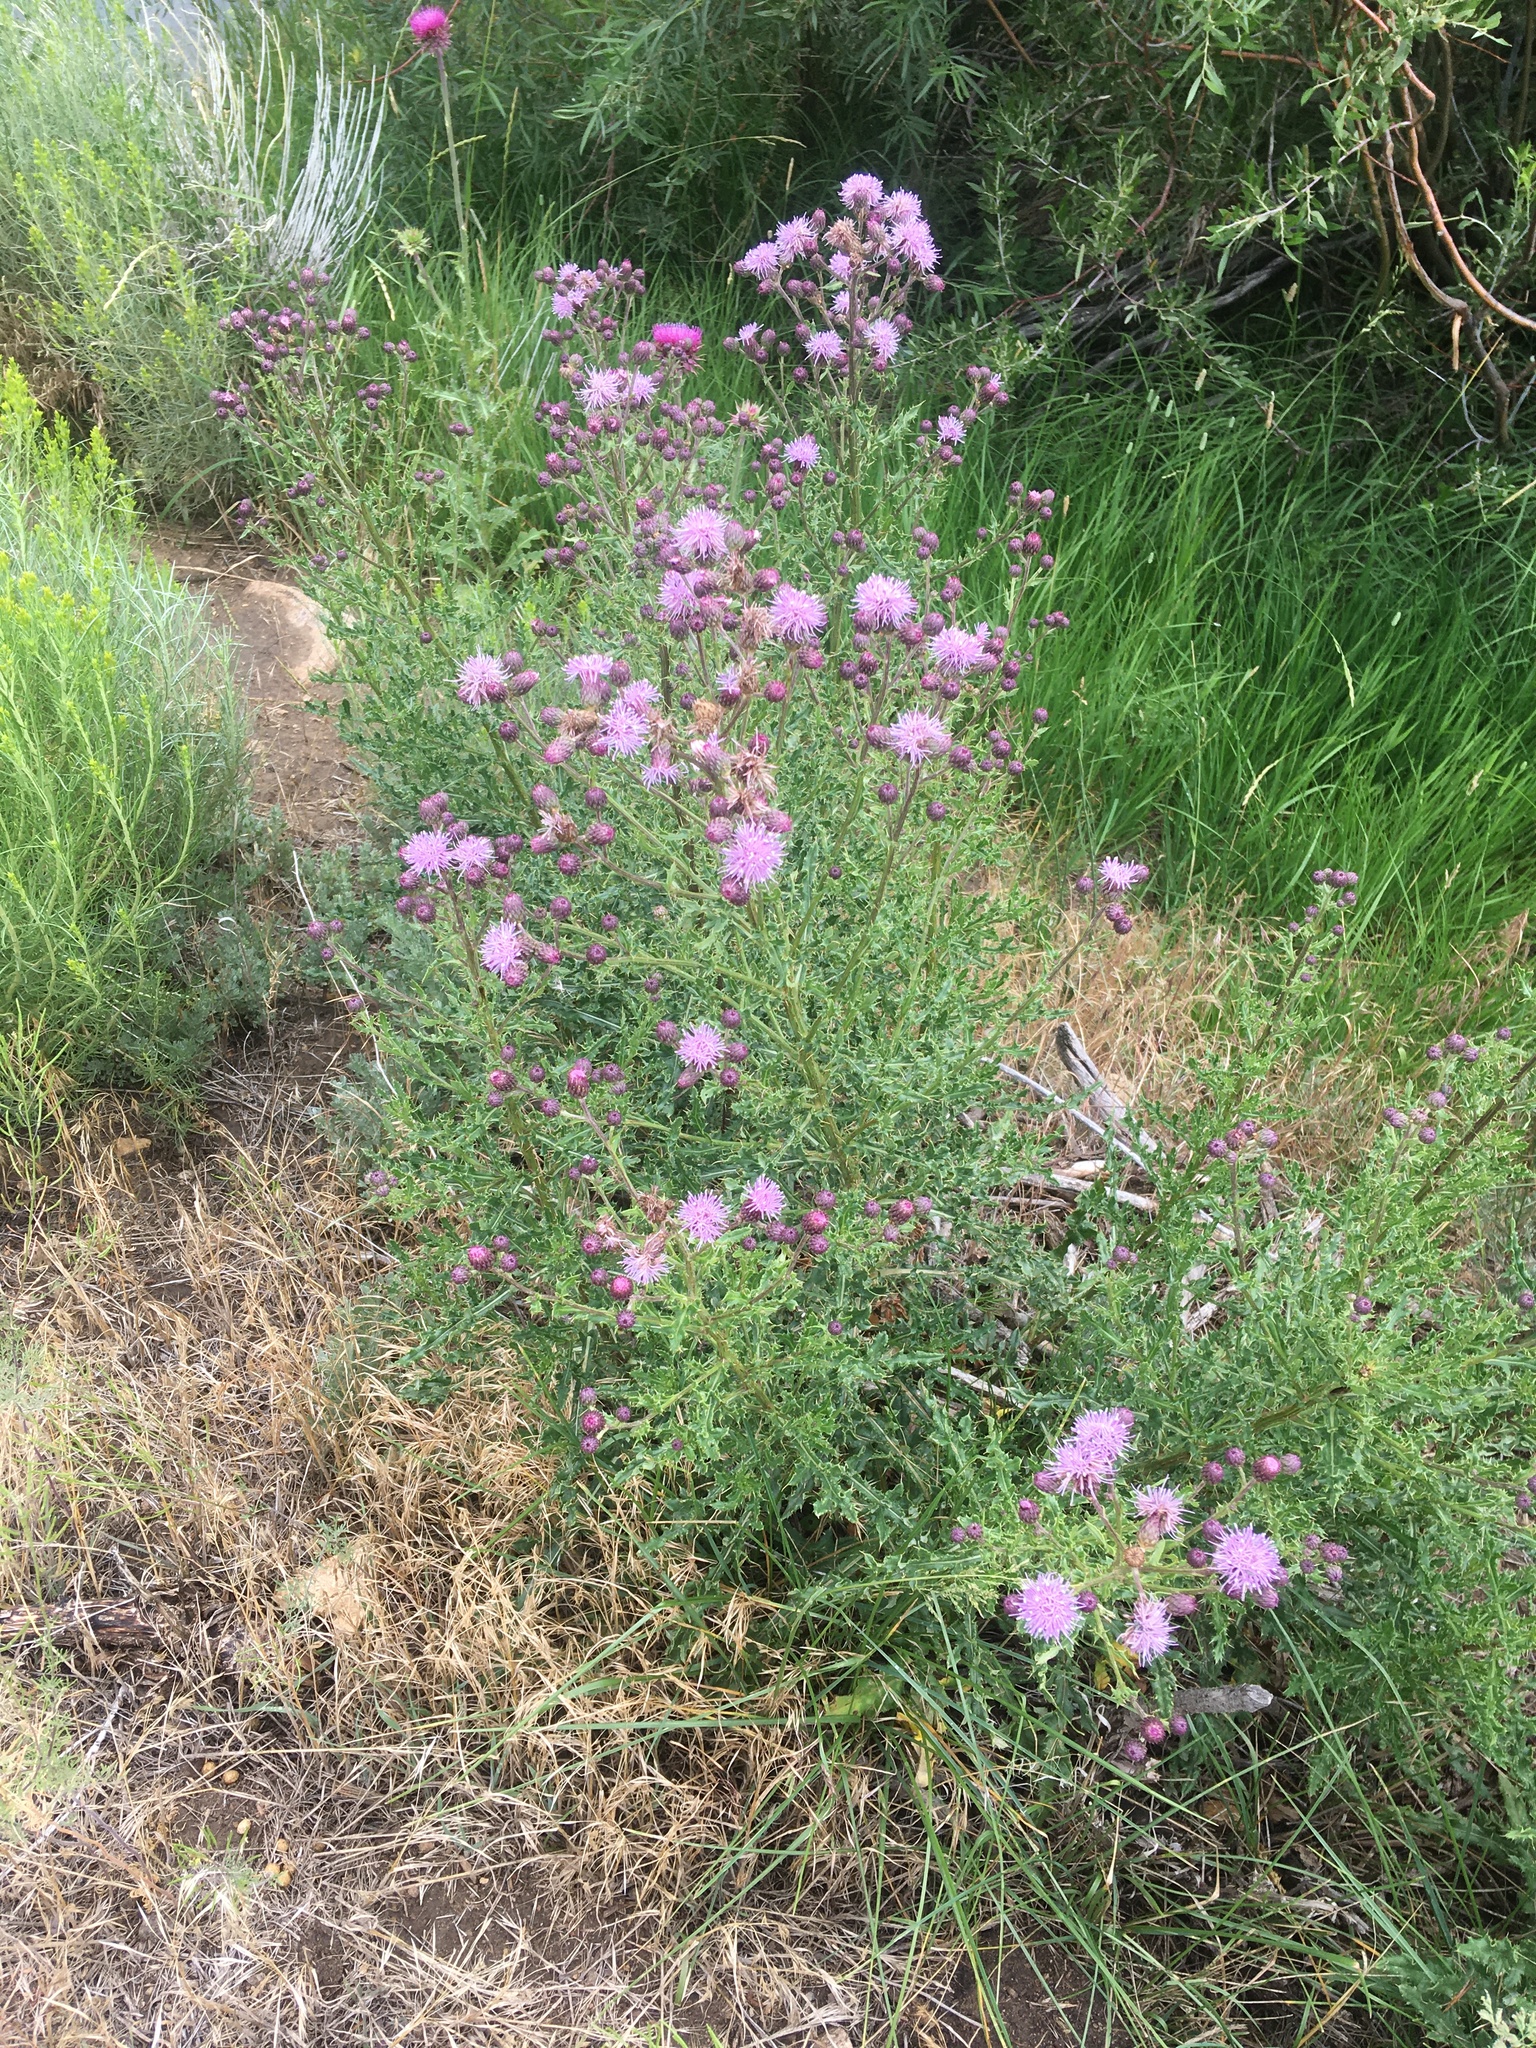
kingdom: Plantae
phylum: Tracheophyta
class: Magnoliopsida
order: Asterales
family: Asteraceae
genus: Cirsium
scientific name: Cirsium arvense
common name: Creeping thistle
